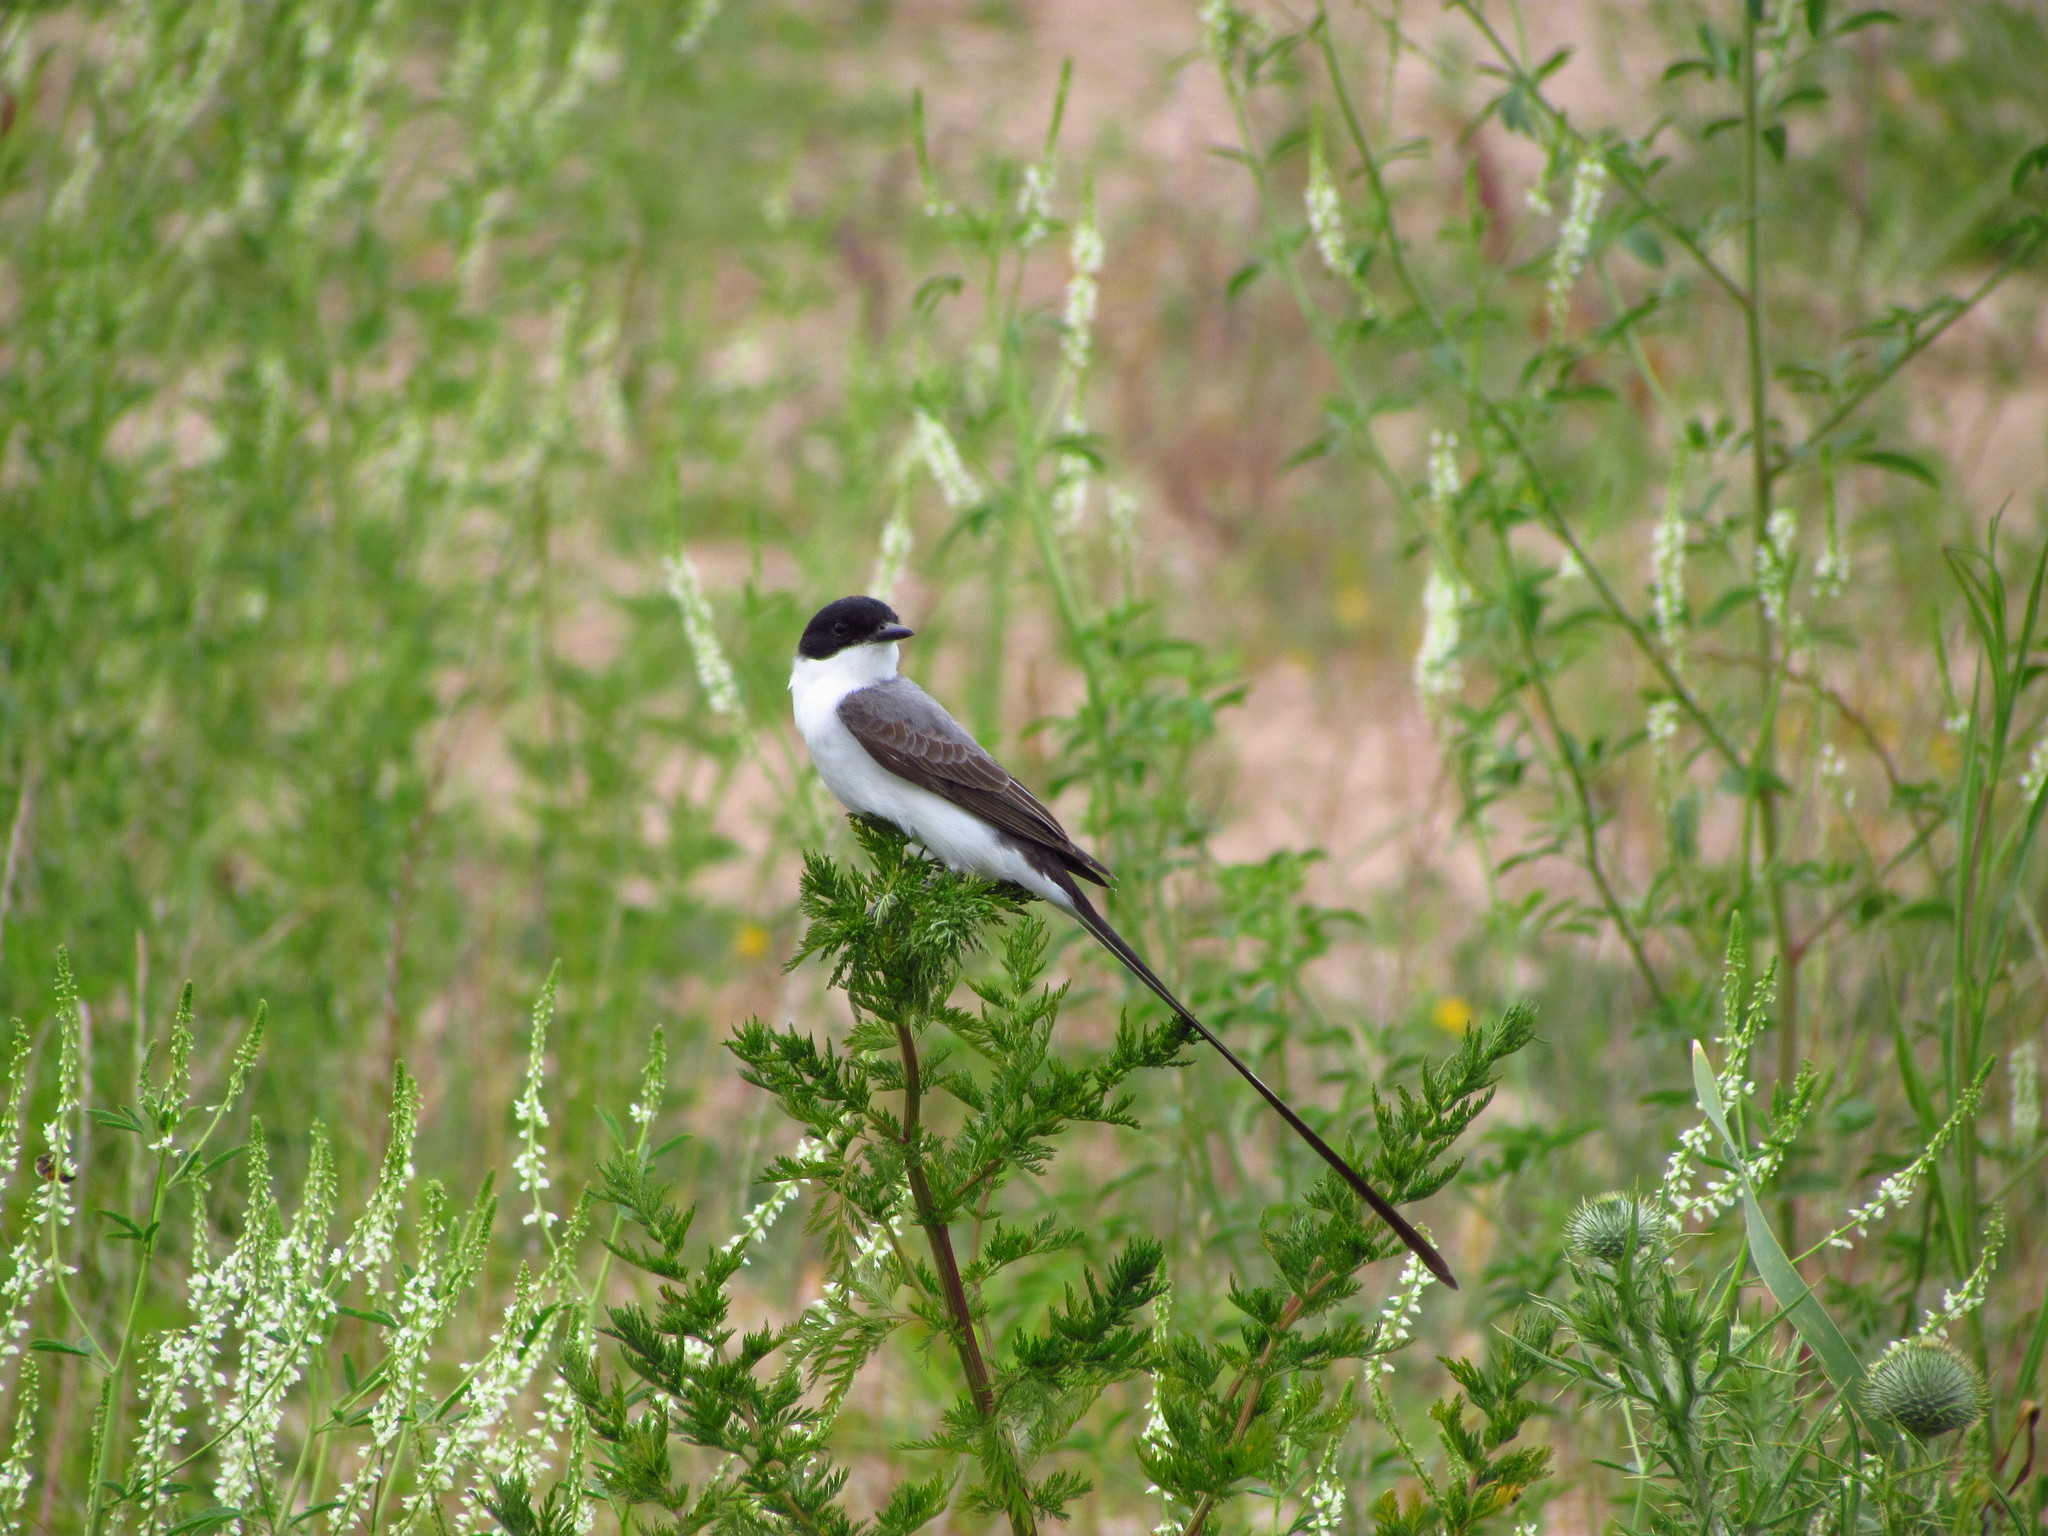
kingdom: Animalia
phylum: Chordata
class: Aves
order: Passeriformes
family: Tyrannidae
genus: Tyrannus
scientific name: Tyrannus savana
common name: Fork-tailed flycatcher
